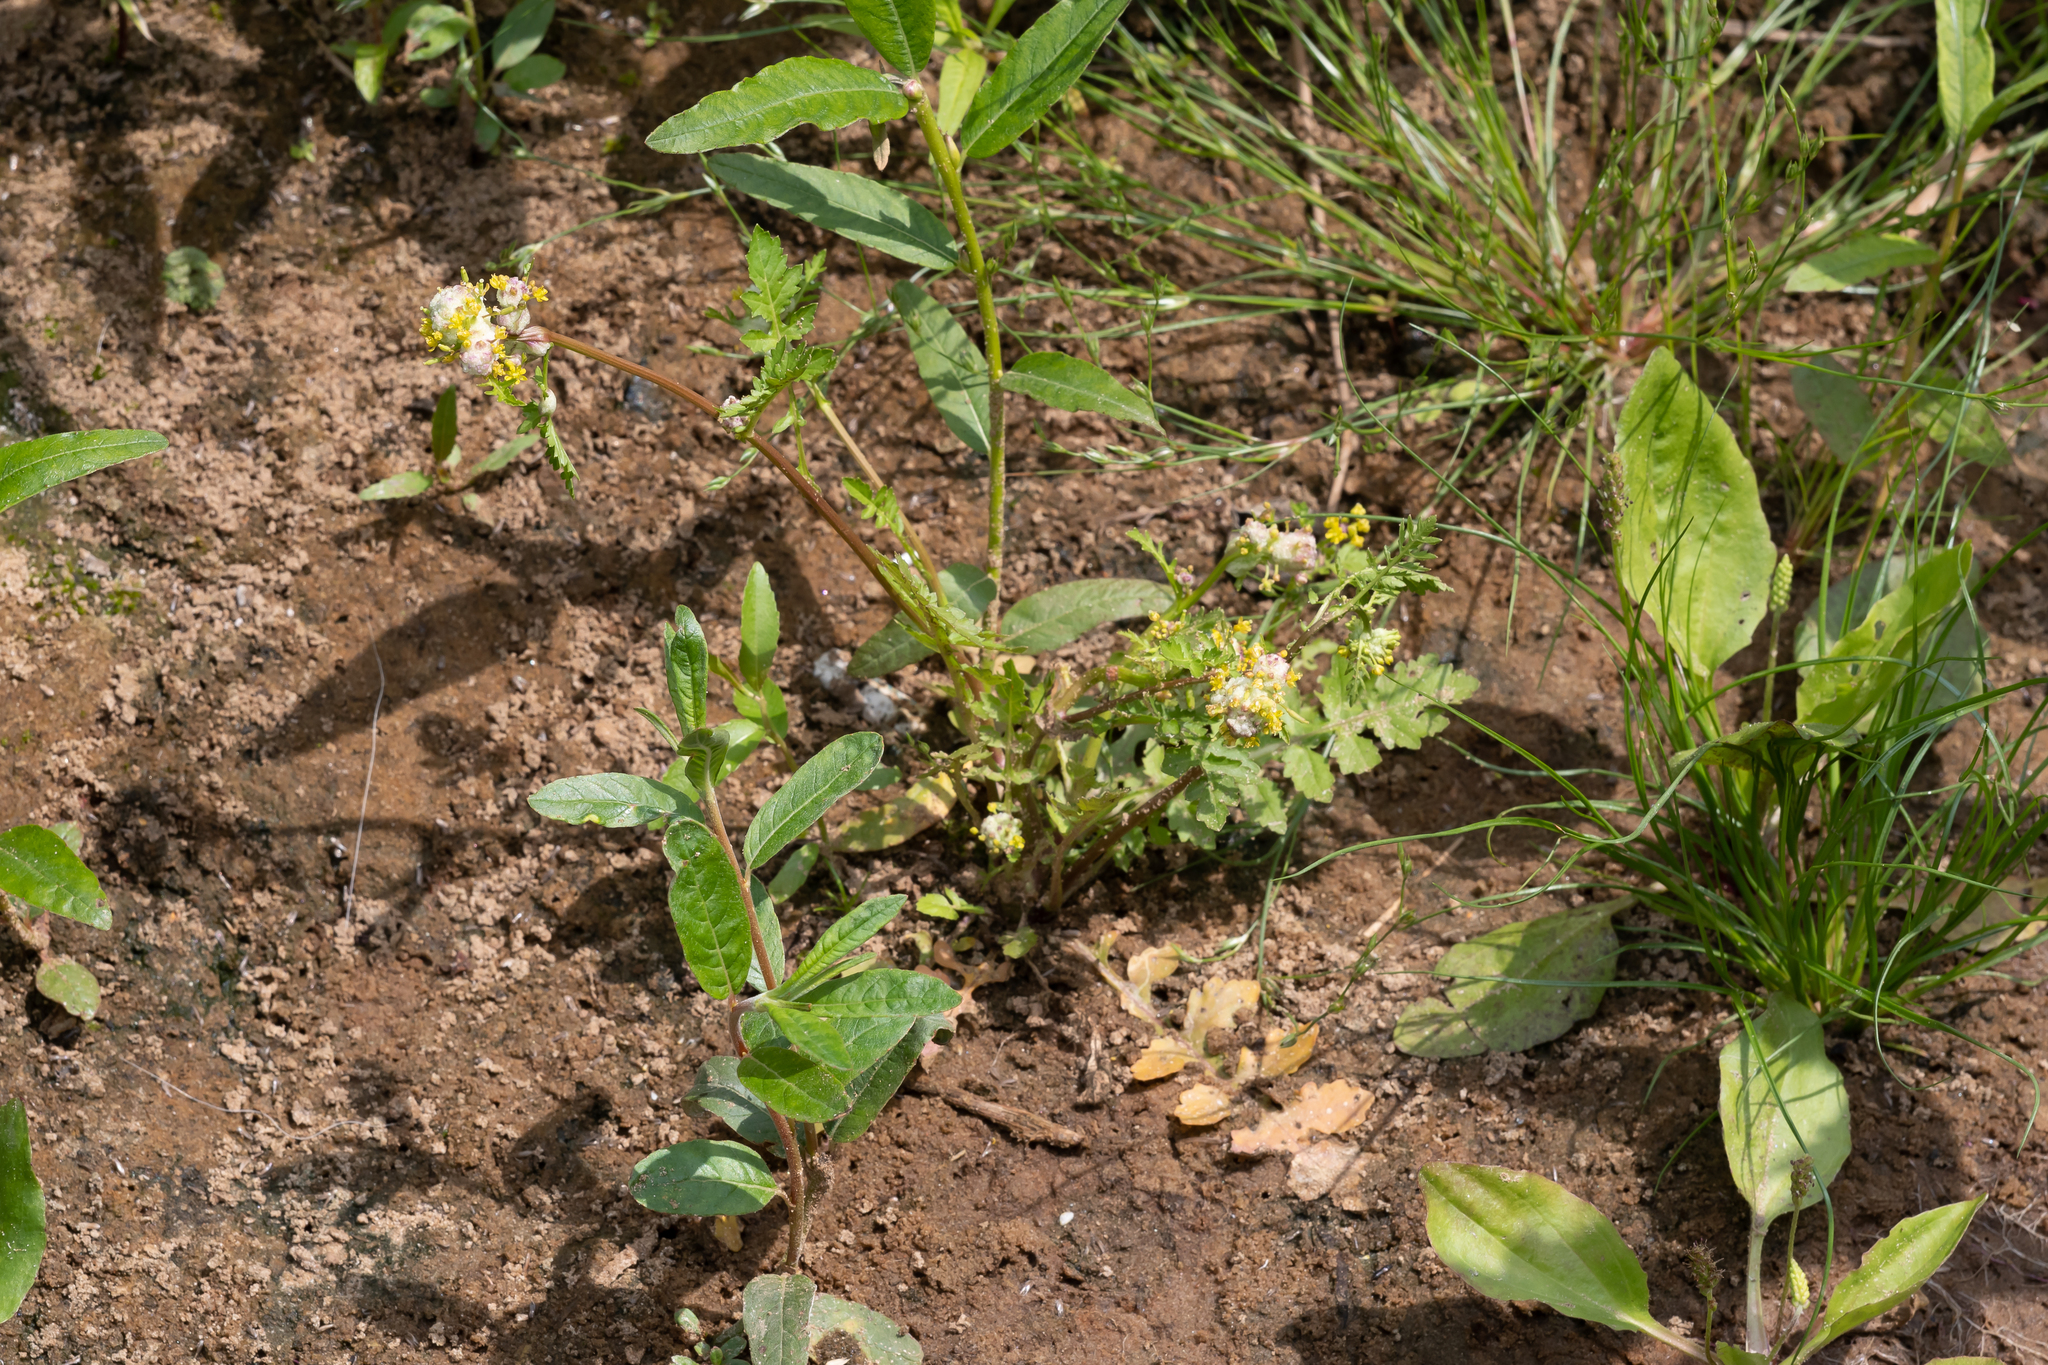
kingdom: Plantae
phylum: Tracheophyta
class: Magnoliopsida
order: Brassicales
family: Brassicaceae
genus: Rorippa
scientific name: Rorippa palustris
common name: Marsh yellow-cress
